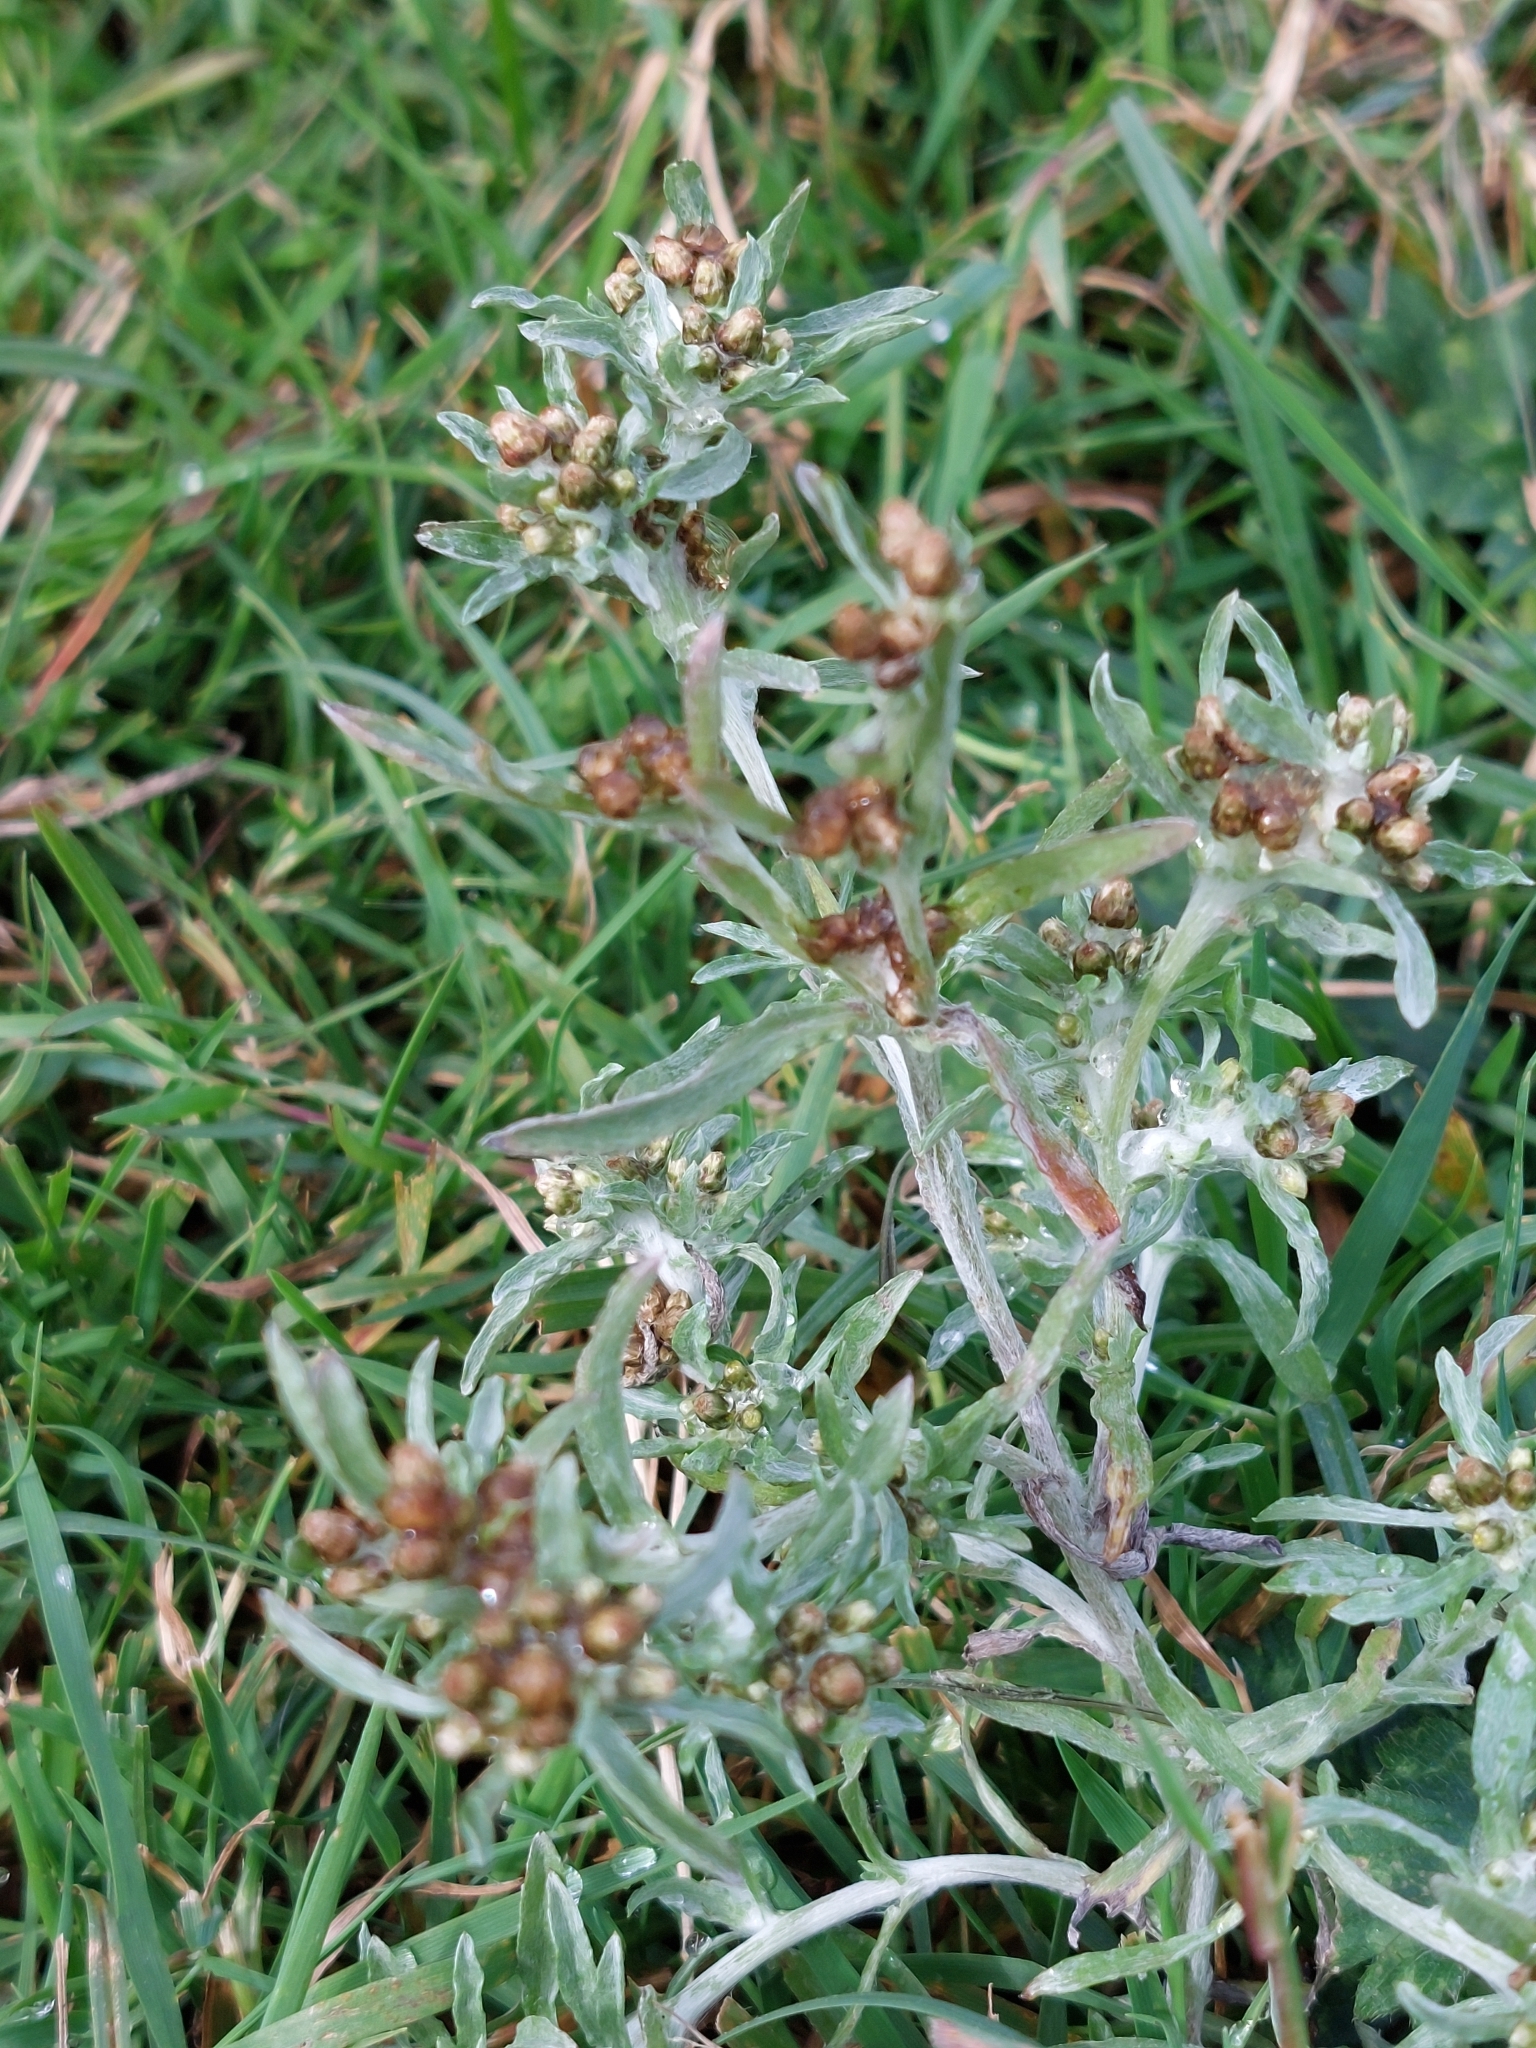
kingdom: Plantae
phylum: Tracheophyta
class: Magnoliopsida
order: Asterales
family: Asteraceae
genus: Gnaphalium
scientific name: Gnaphalium uliginosum
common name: Marsh cudweed
